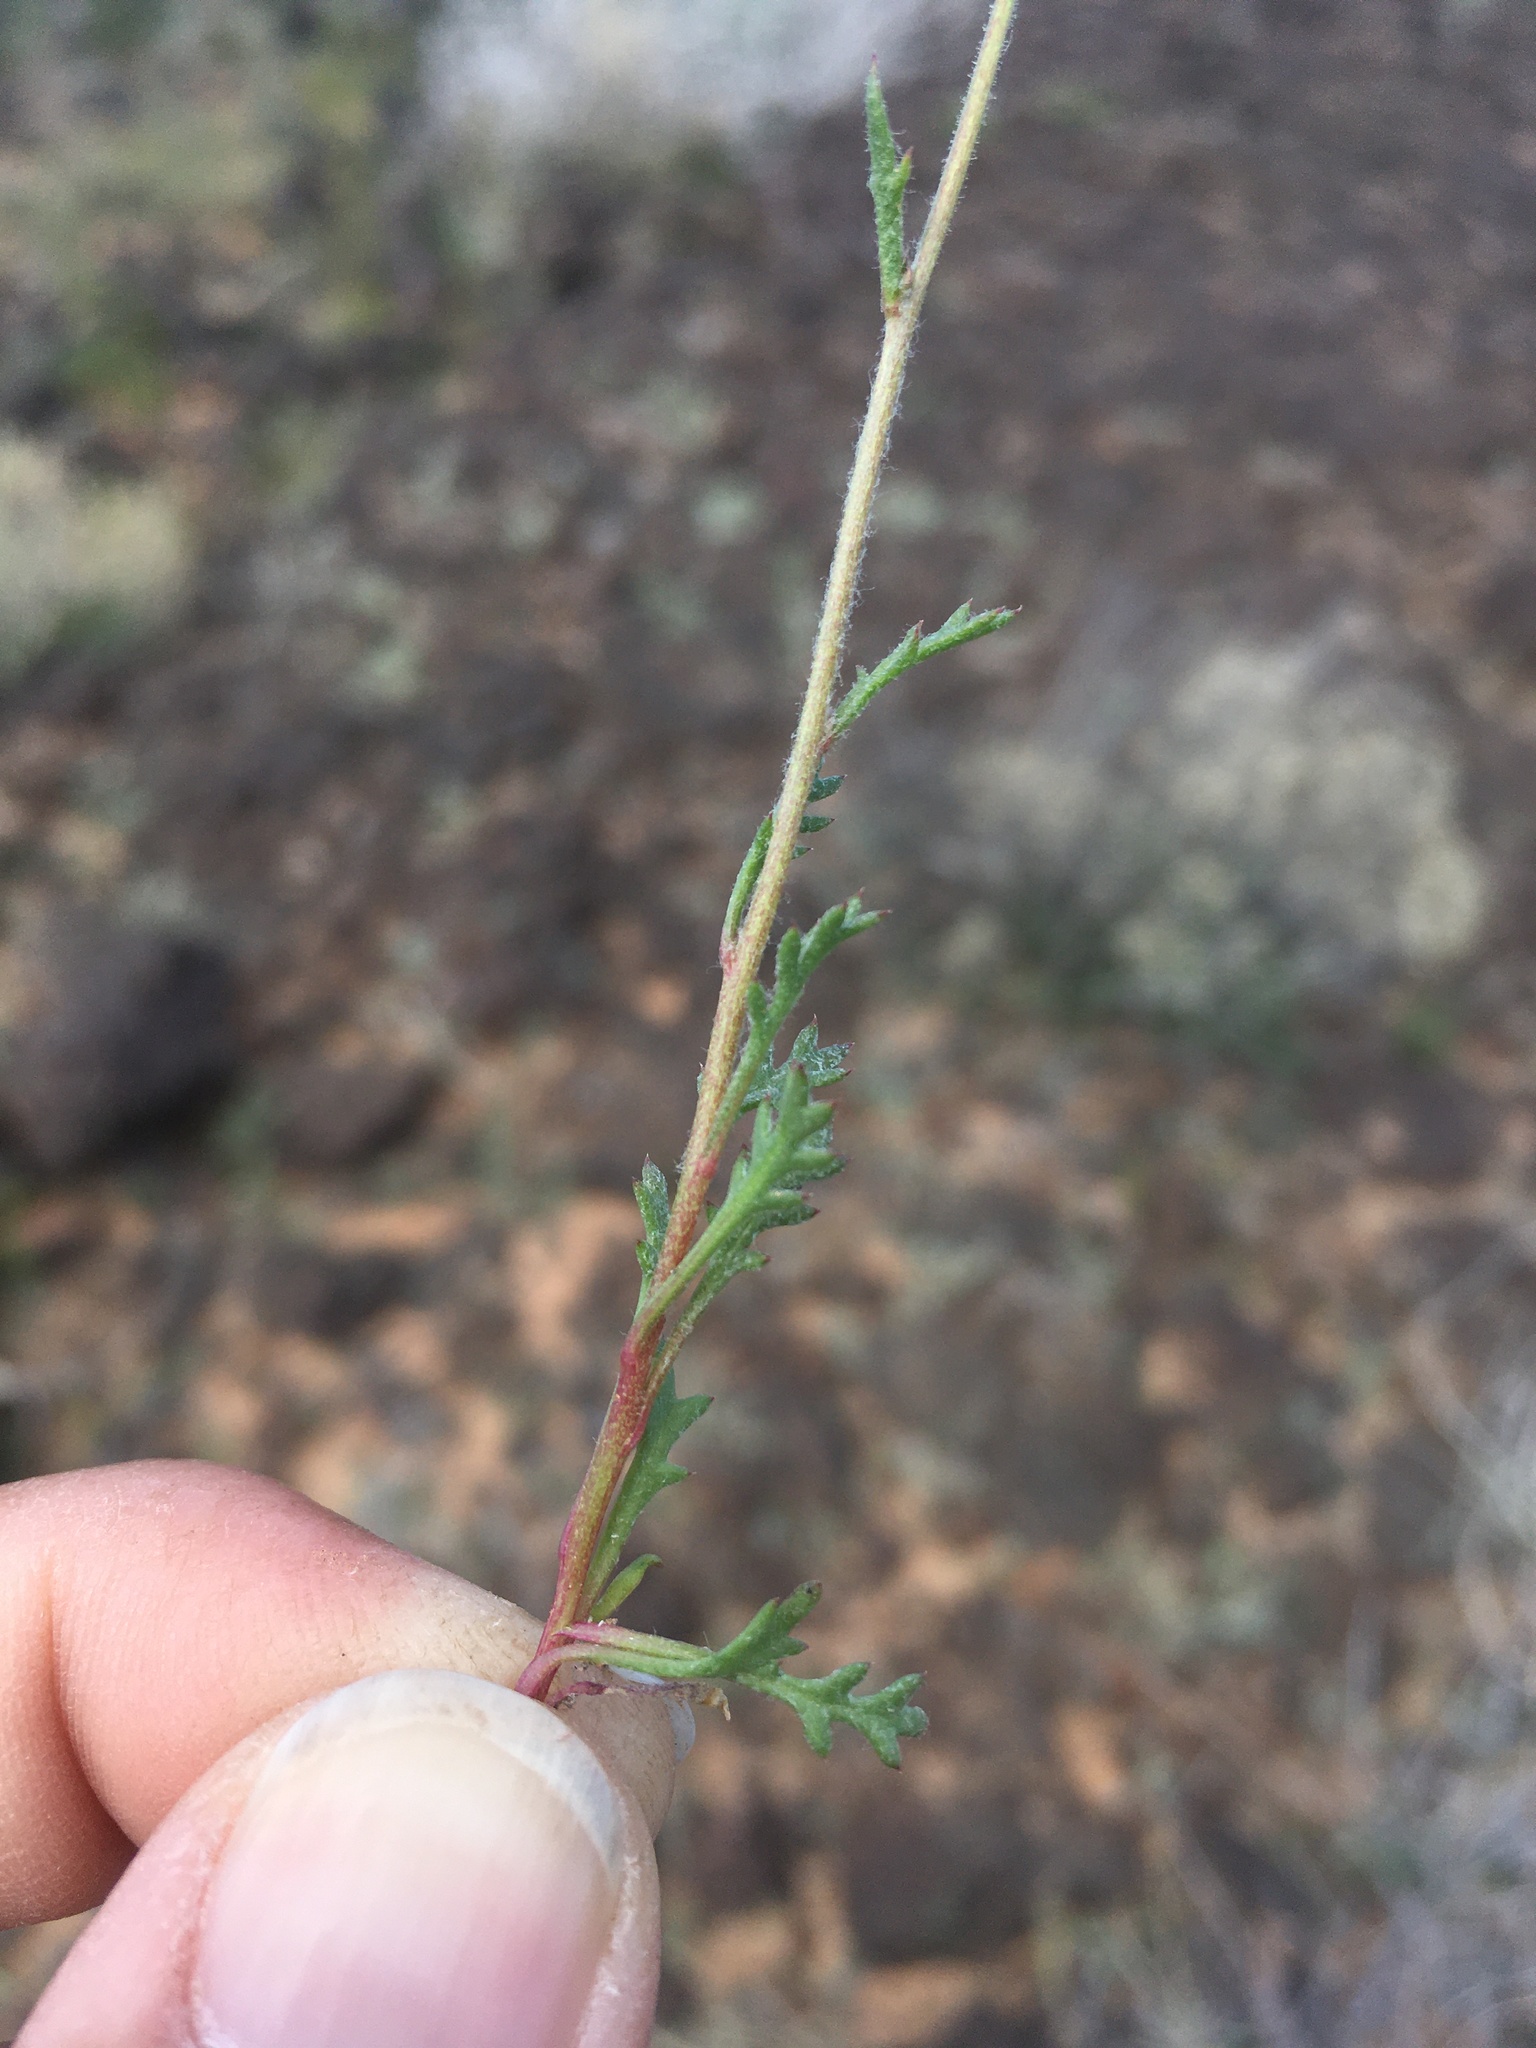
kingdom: Plantae
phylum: Tracheophyta
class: Magnoliopsida
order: Ericales
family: Polemoniaceae
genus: Gilia
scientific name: Gilia mexicana
